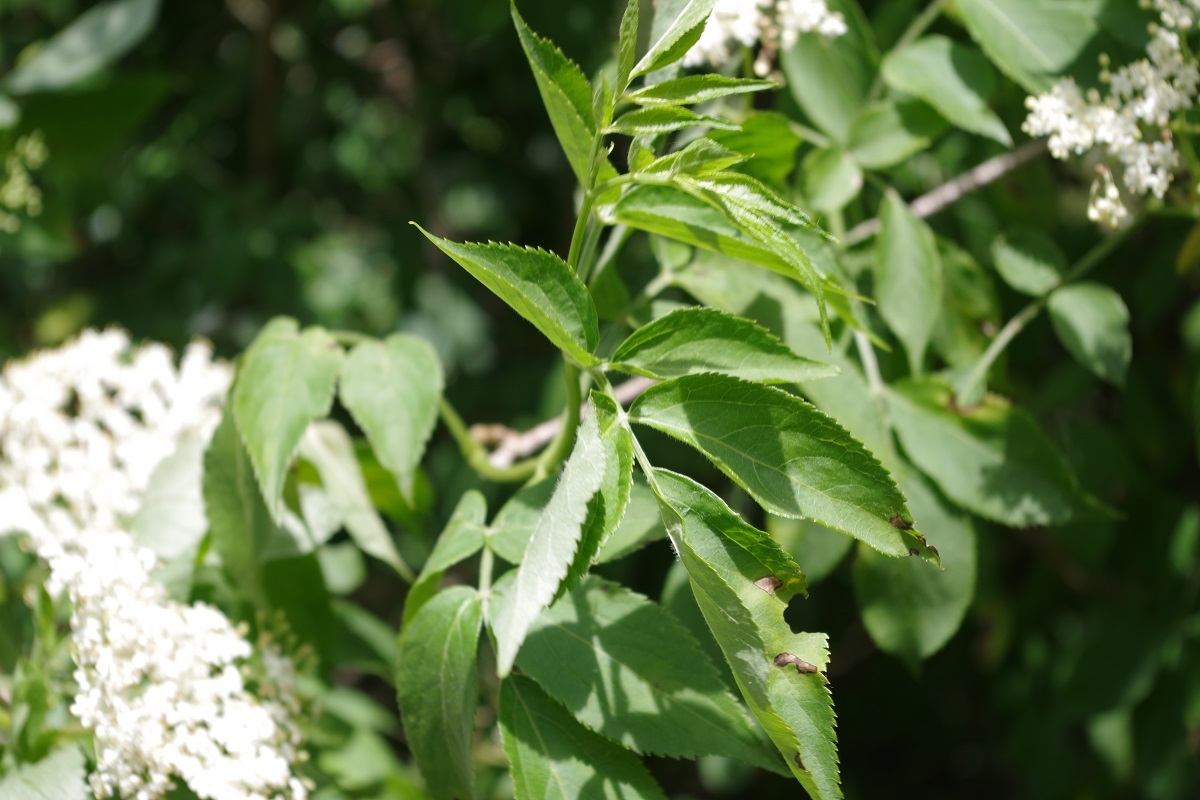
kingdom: Plantae
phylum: Tracheophyta
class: Magnoliopsida
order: Dipsacales
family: Viburnaceae
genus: Sambucus
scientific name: Sambucus nigra
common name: Elder
